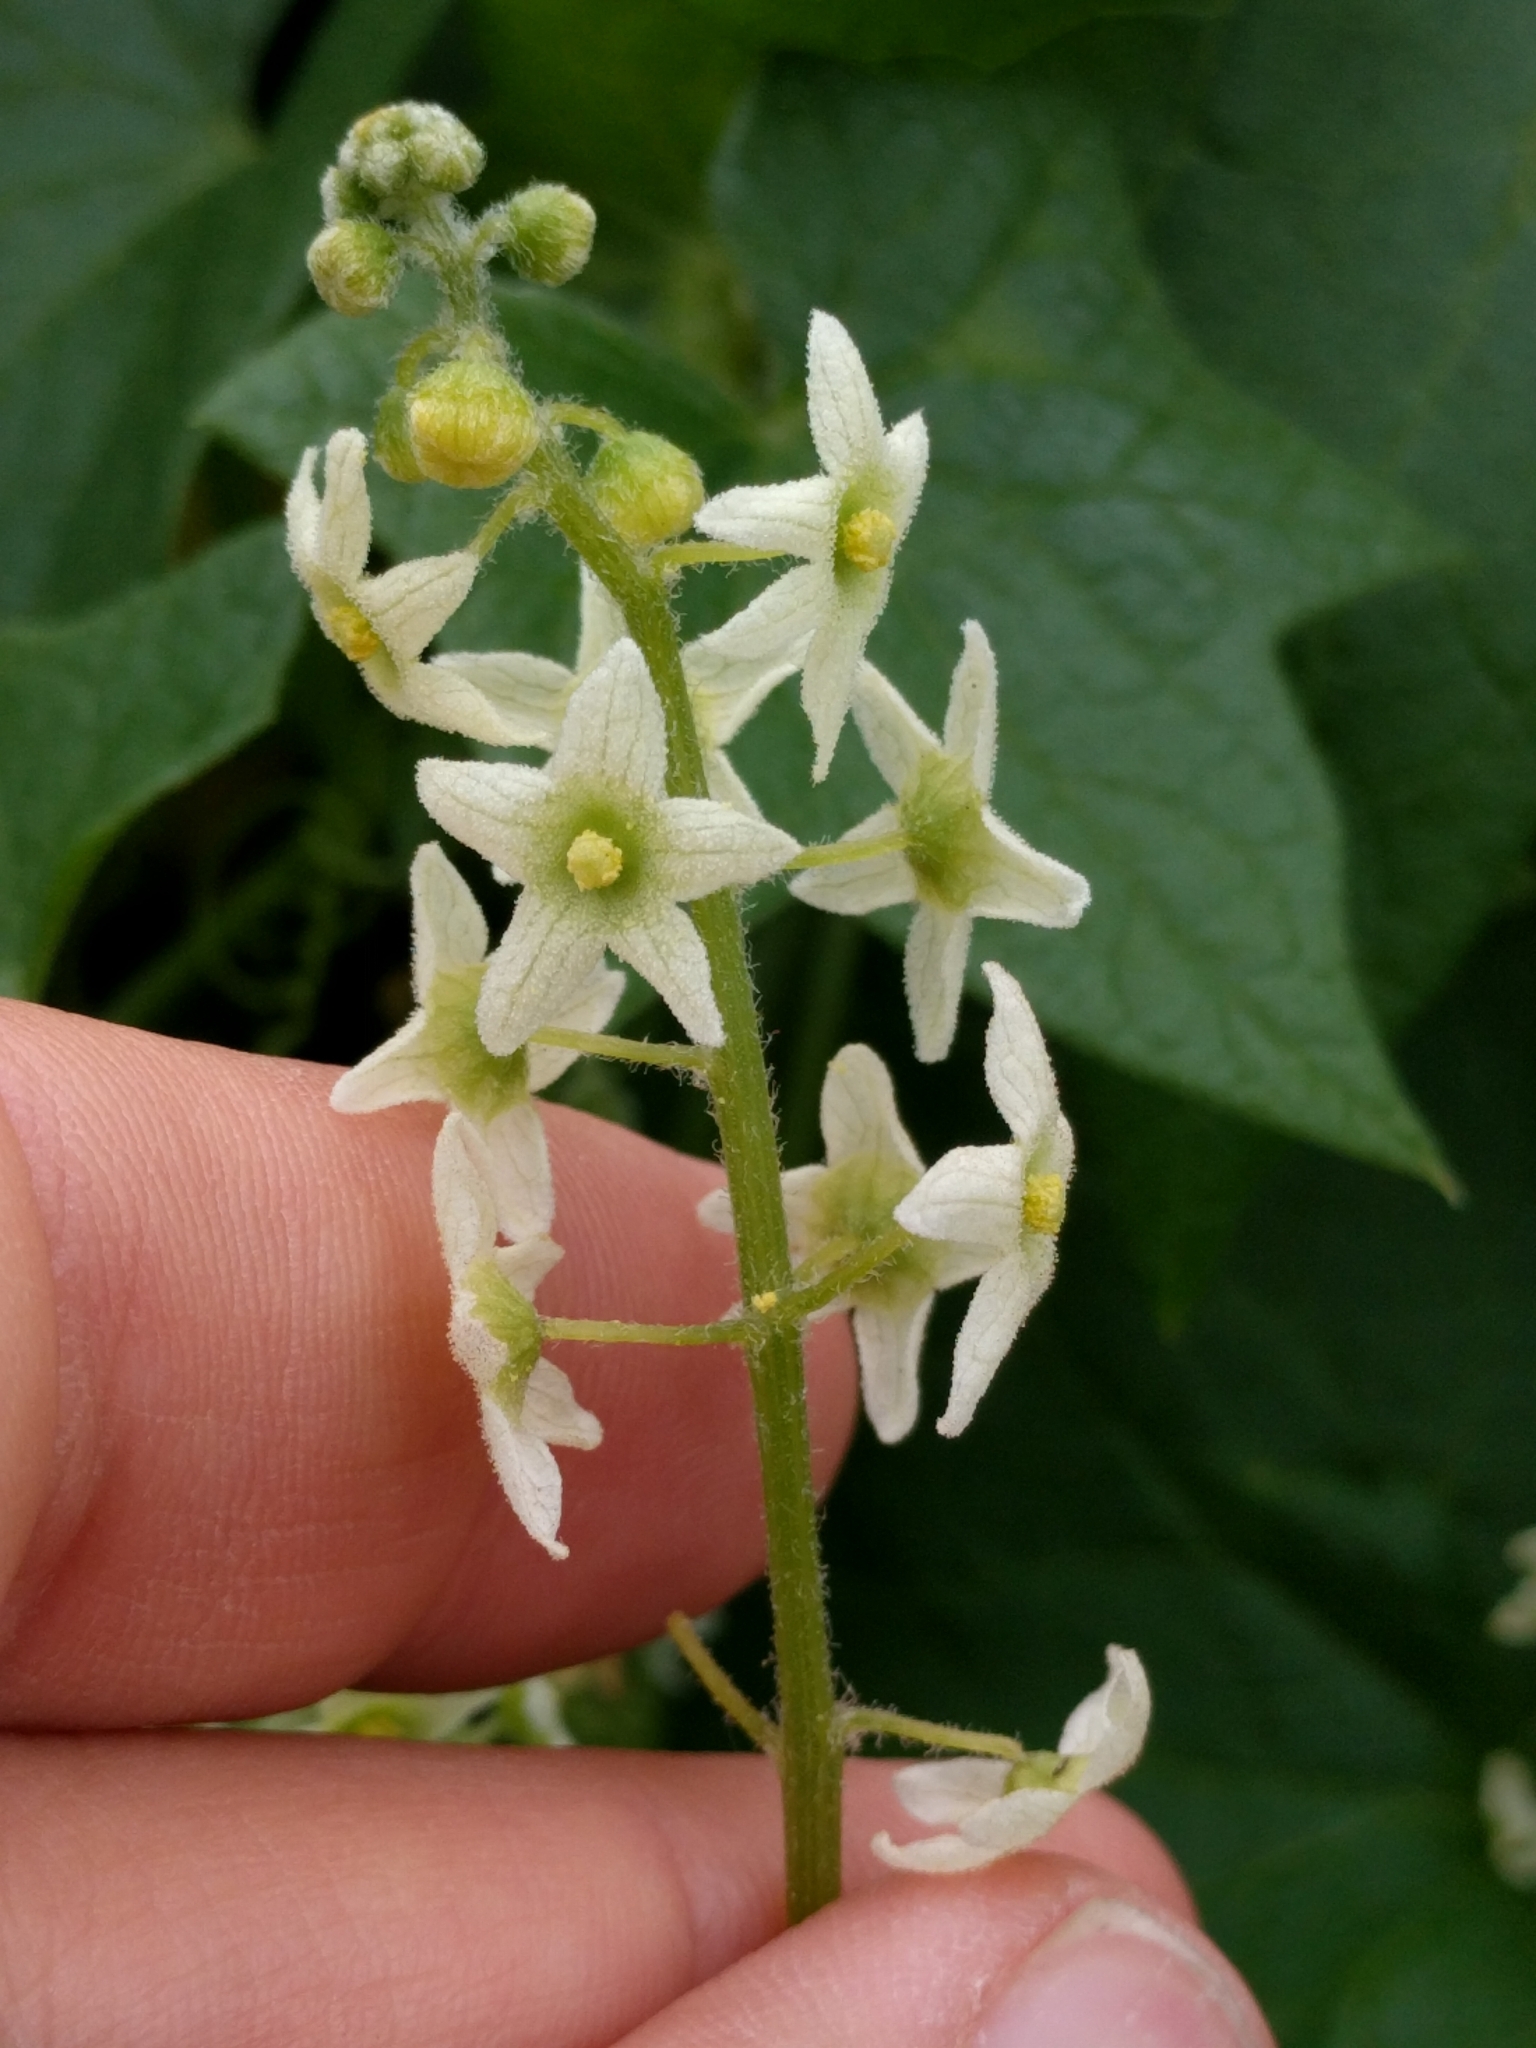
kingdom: Plantae
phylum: Tracheophyta
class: Magnoliopsida
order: Cucurbitales
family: Cucurbitaceae
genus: Marah
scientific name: Marah fabacea
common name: California manroot
